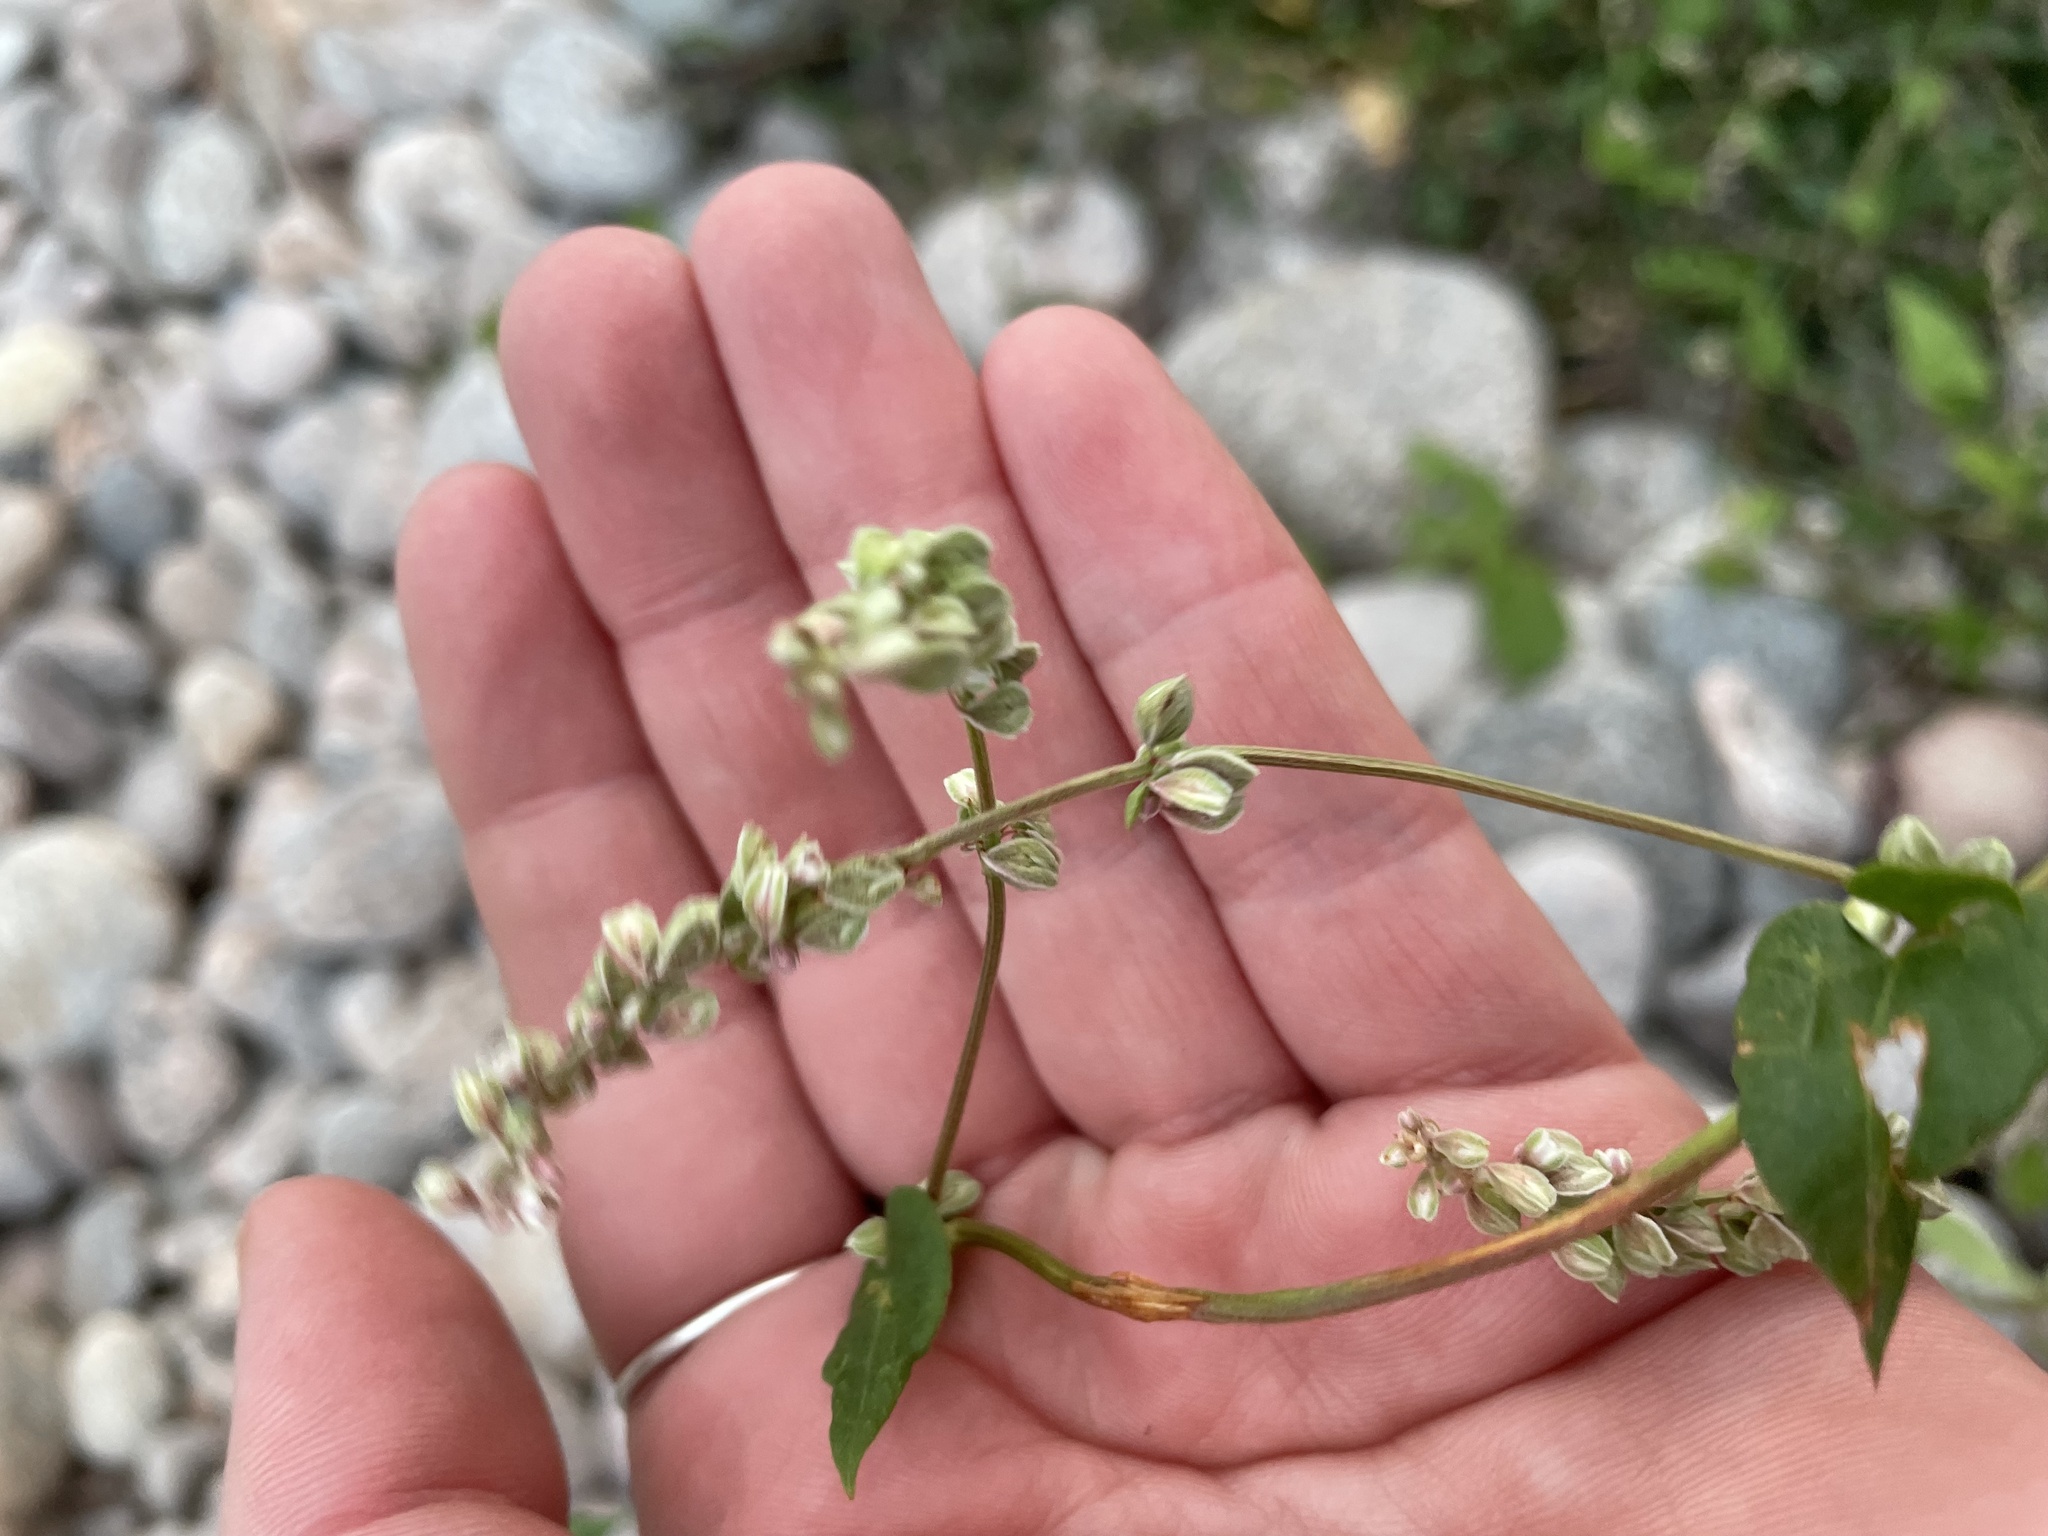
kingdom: Plantae
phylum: Tracheophyta
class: Magnoliopsida
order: Caryophyllales
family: Polygonaceae
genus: Fallopia
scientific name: Fallopia convolvulus
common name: Black bindweed
